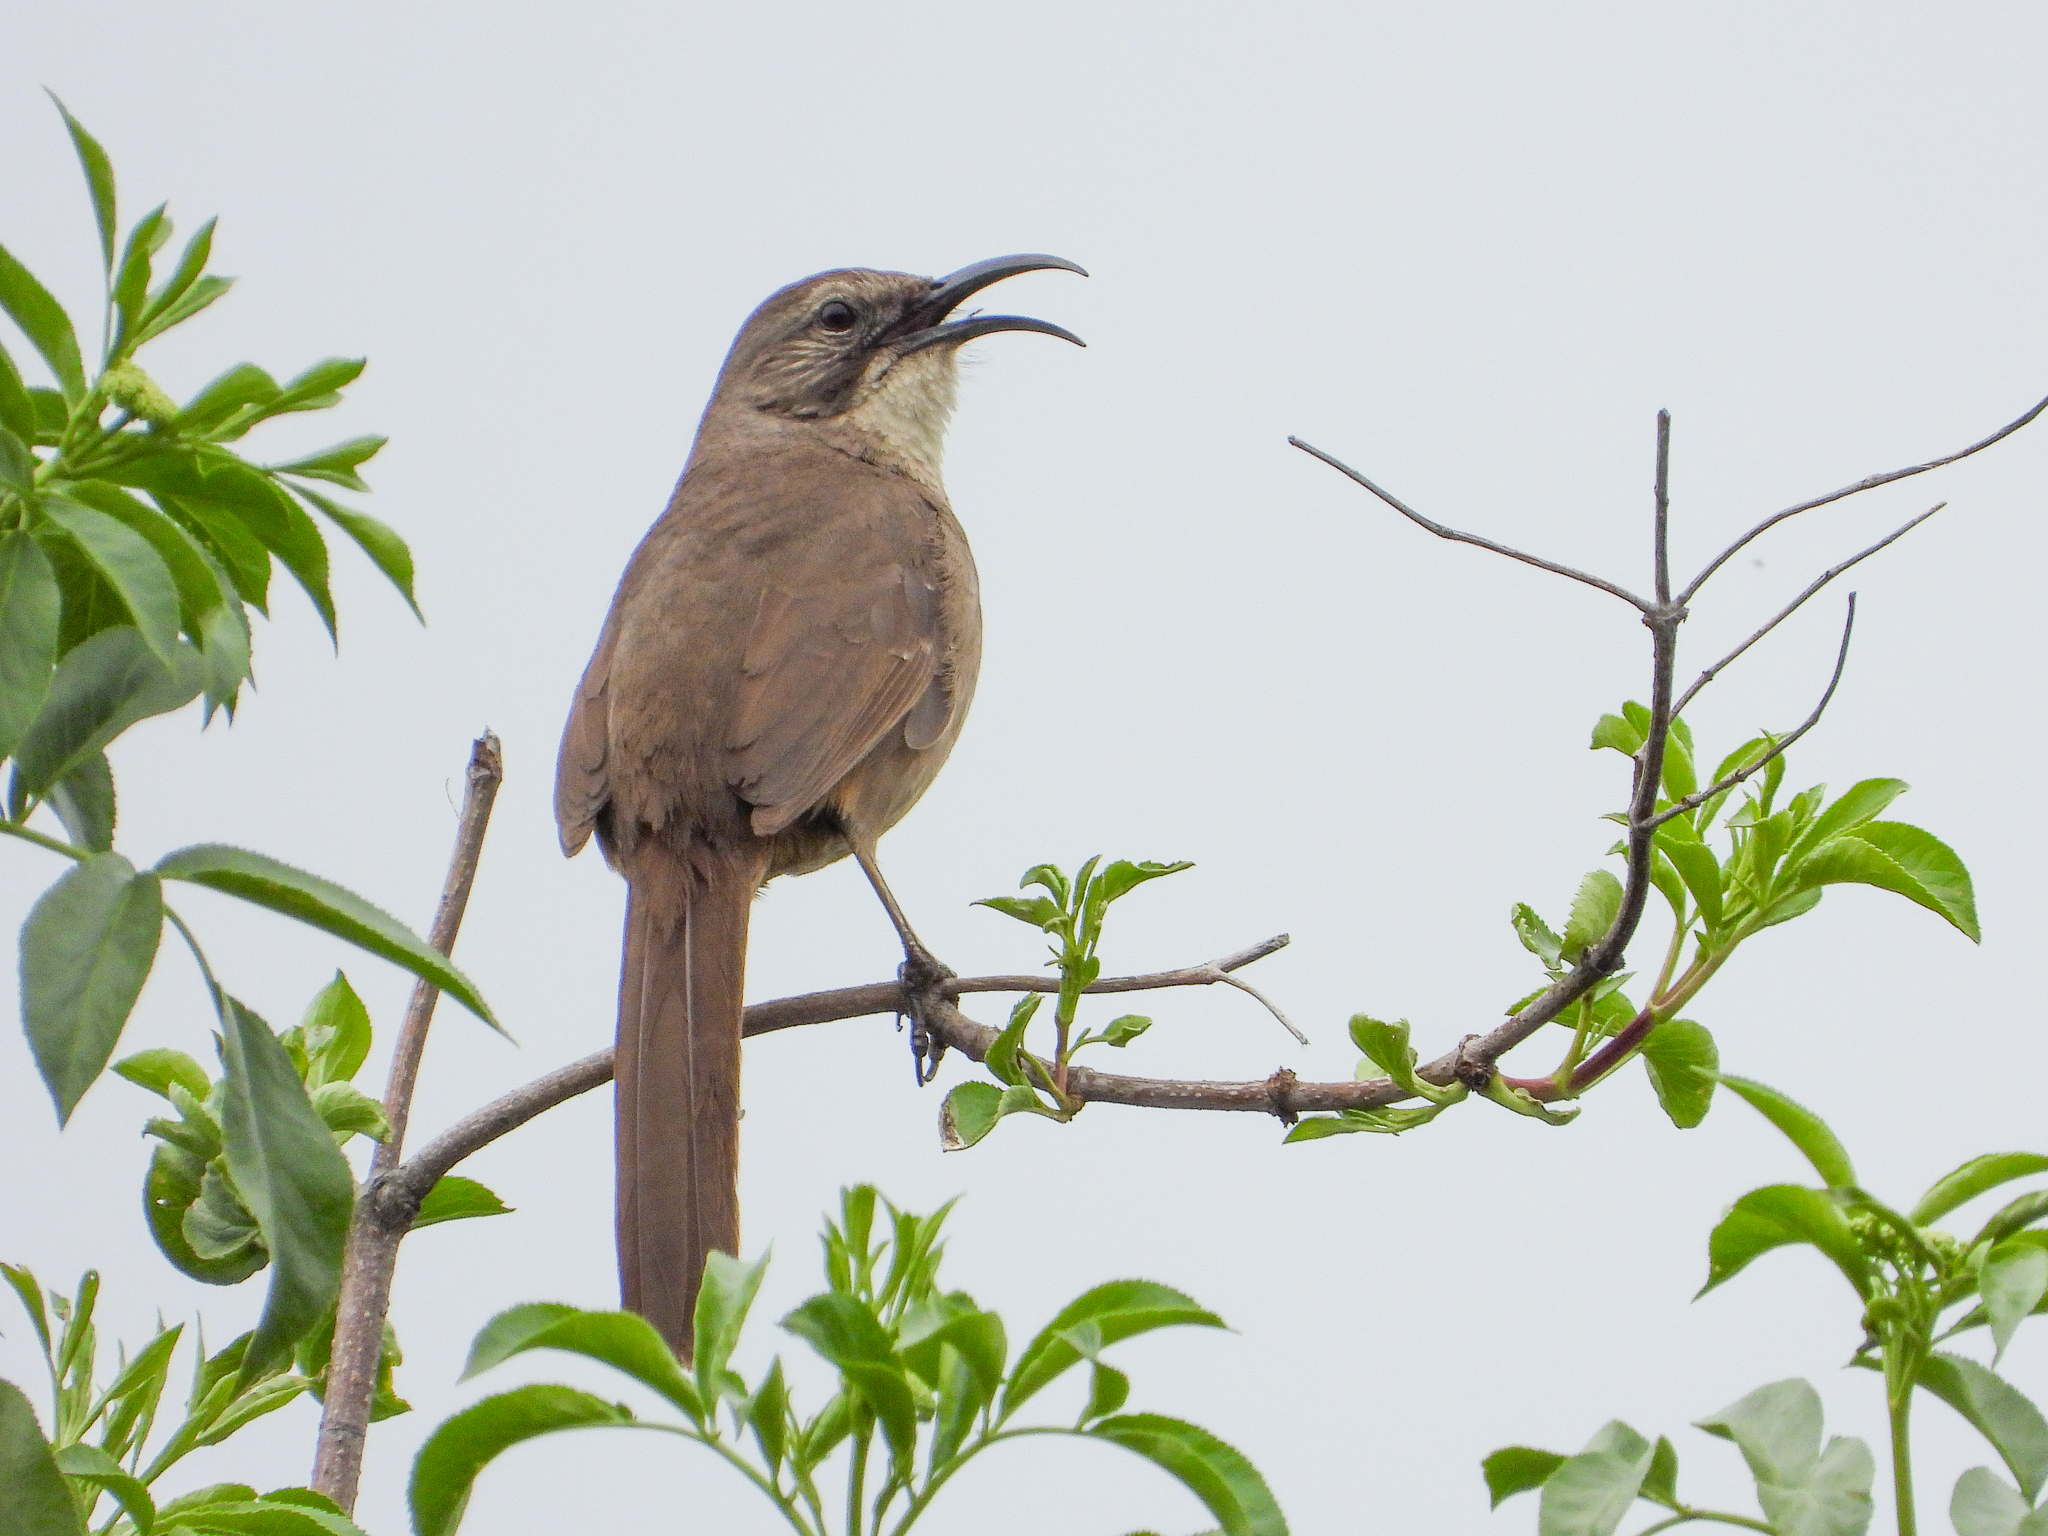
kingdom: Animalia
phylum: Chordata
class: Aves
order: Passeriformes
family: Mimidae
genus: Toxostoma
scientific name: Toxostoma redivivum
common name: California thrasher
